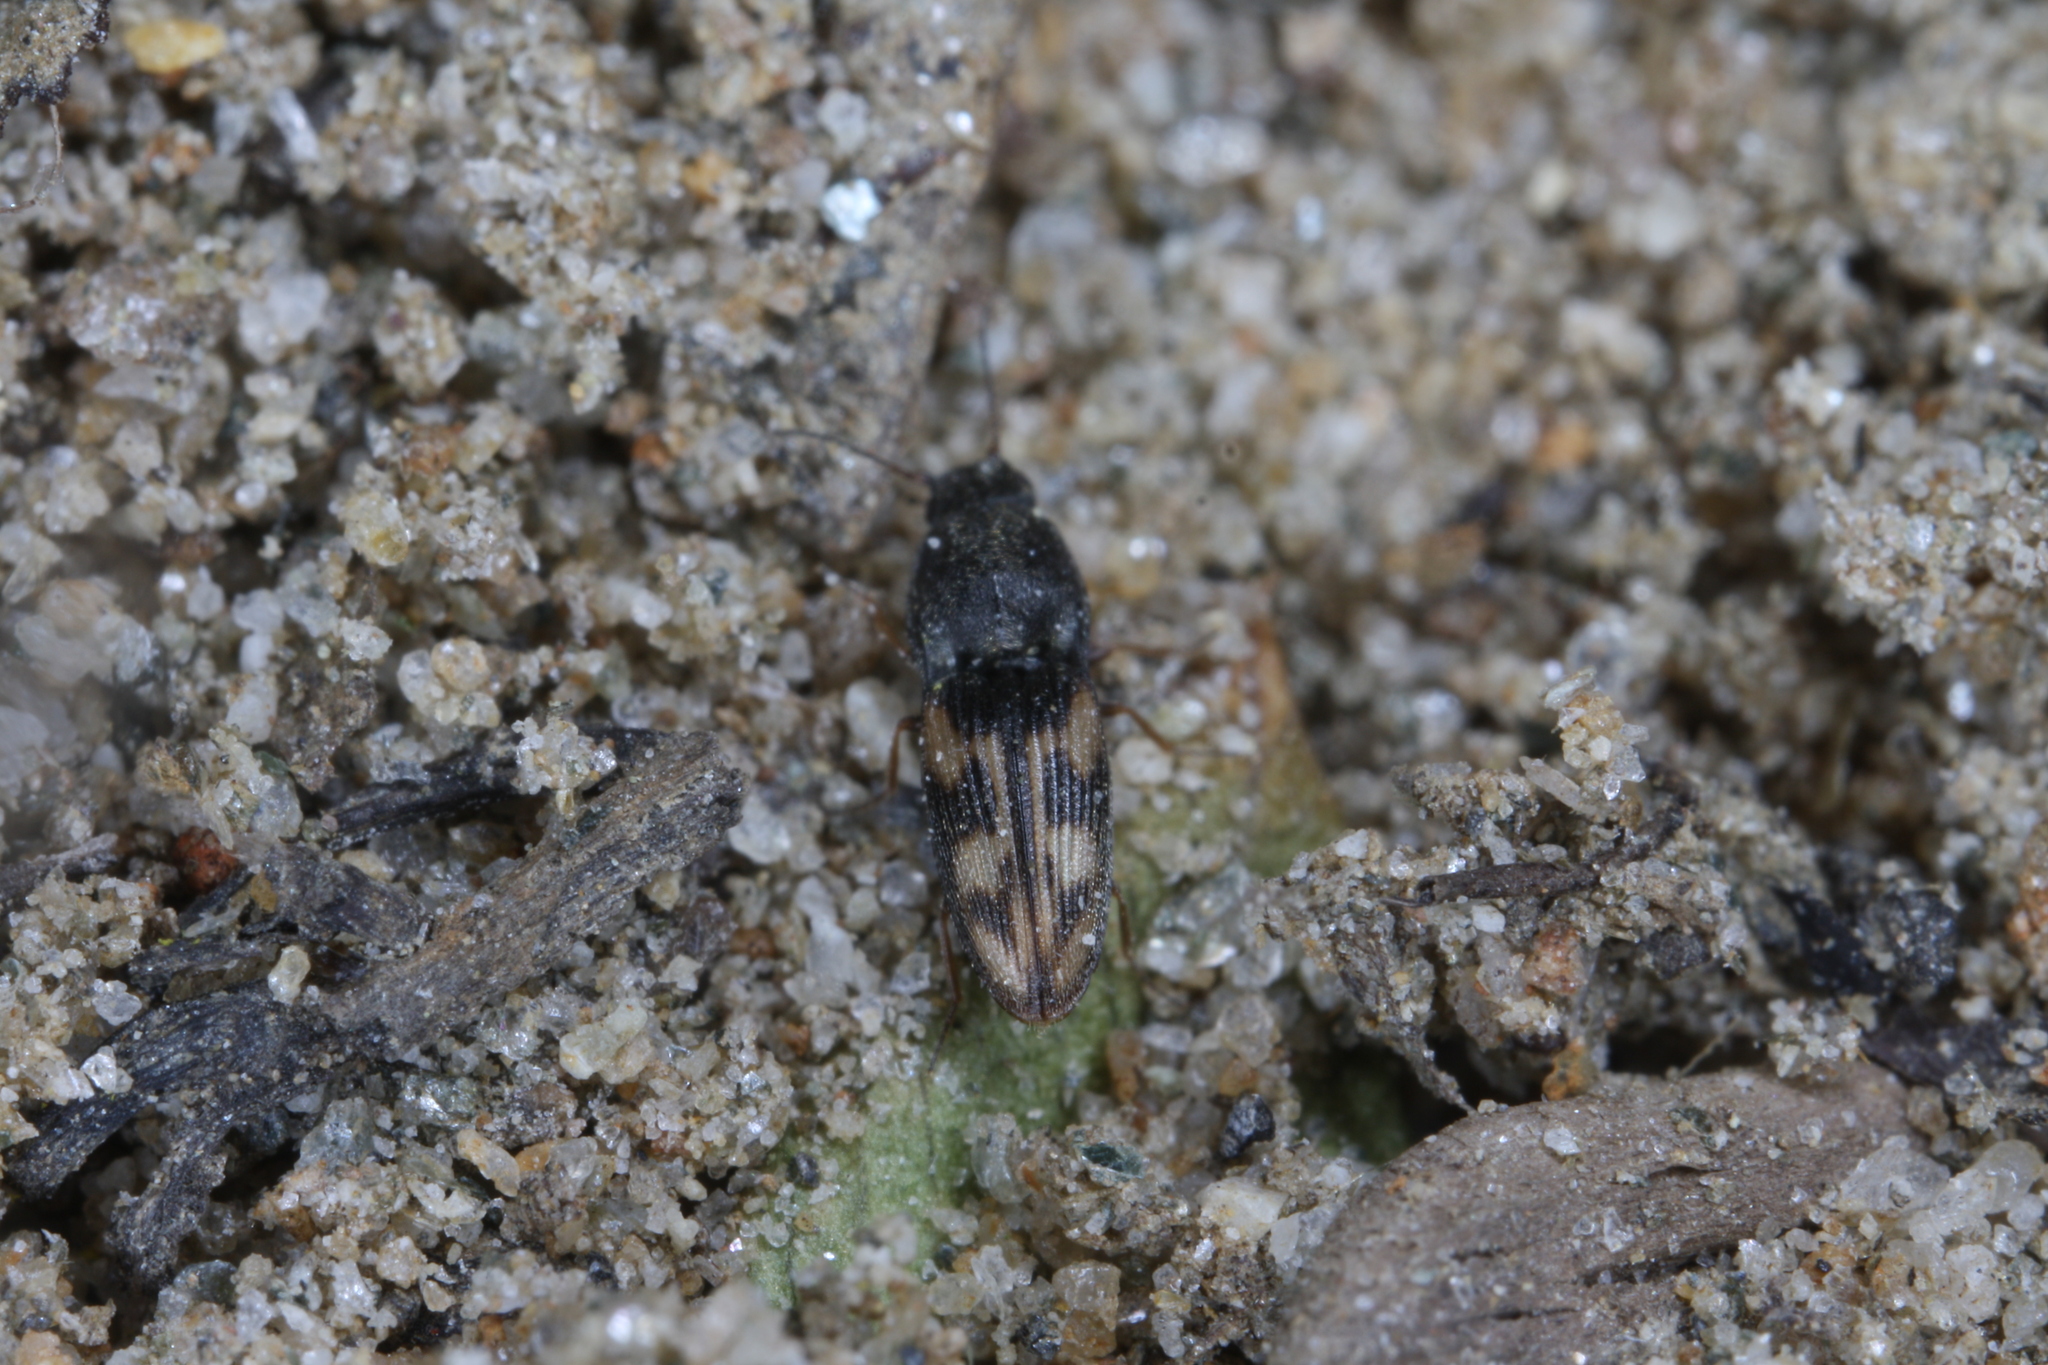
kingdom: Animalia
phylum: Arthropoda
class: Insecta
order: Coleoptera
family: Elateridae
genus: Negastrius
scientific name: Negastrius pulchellus
